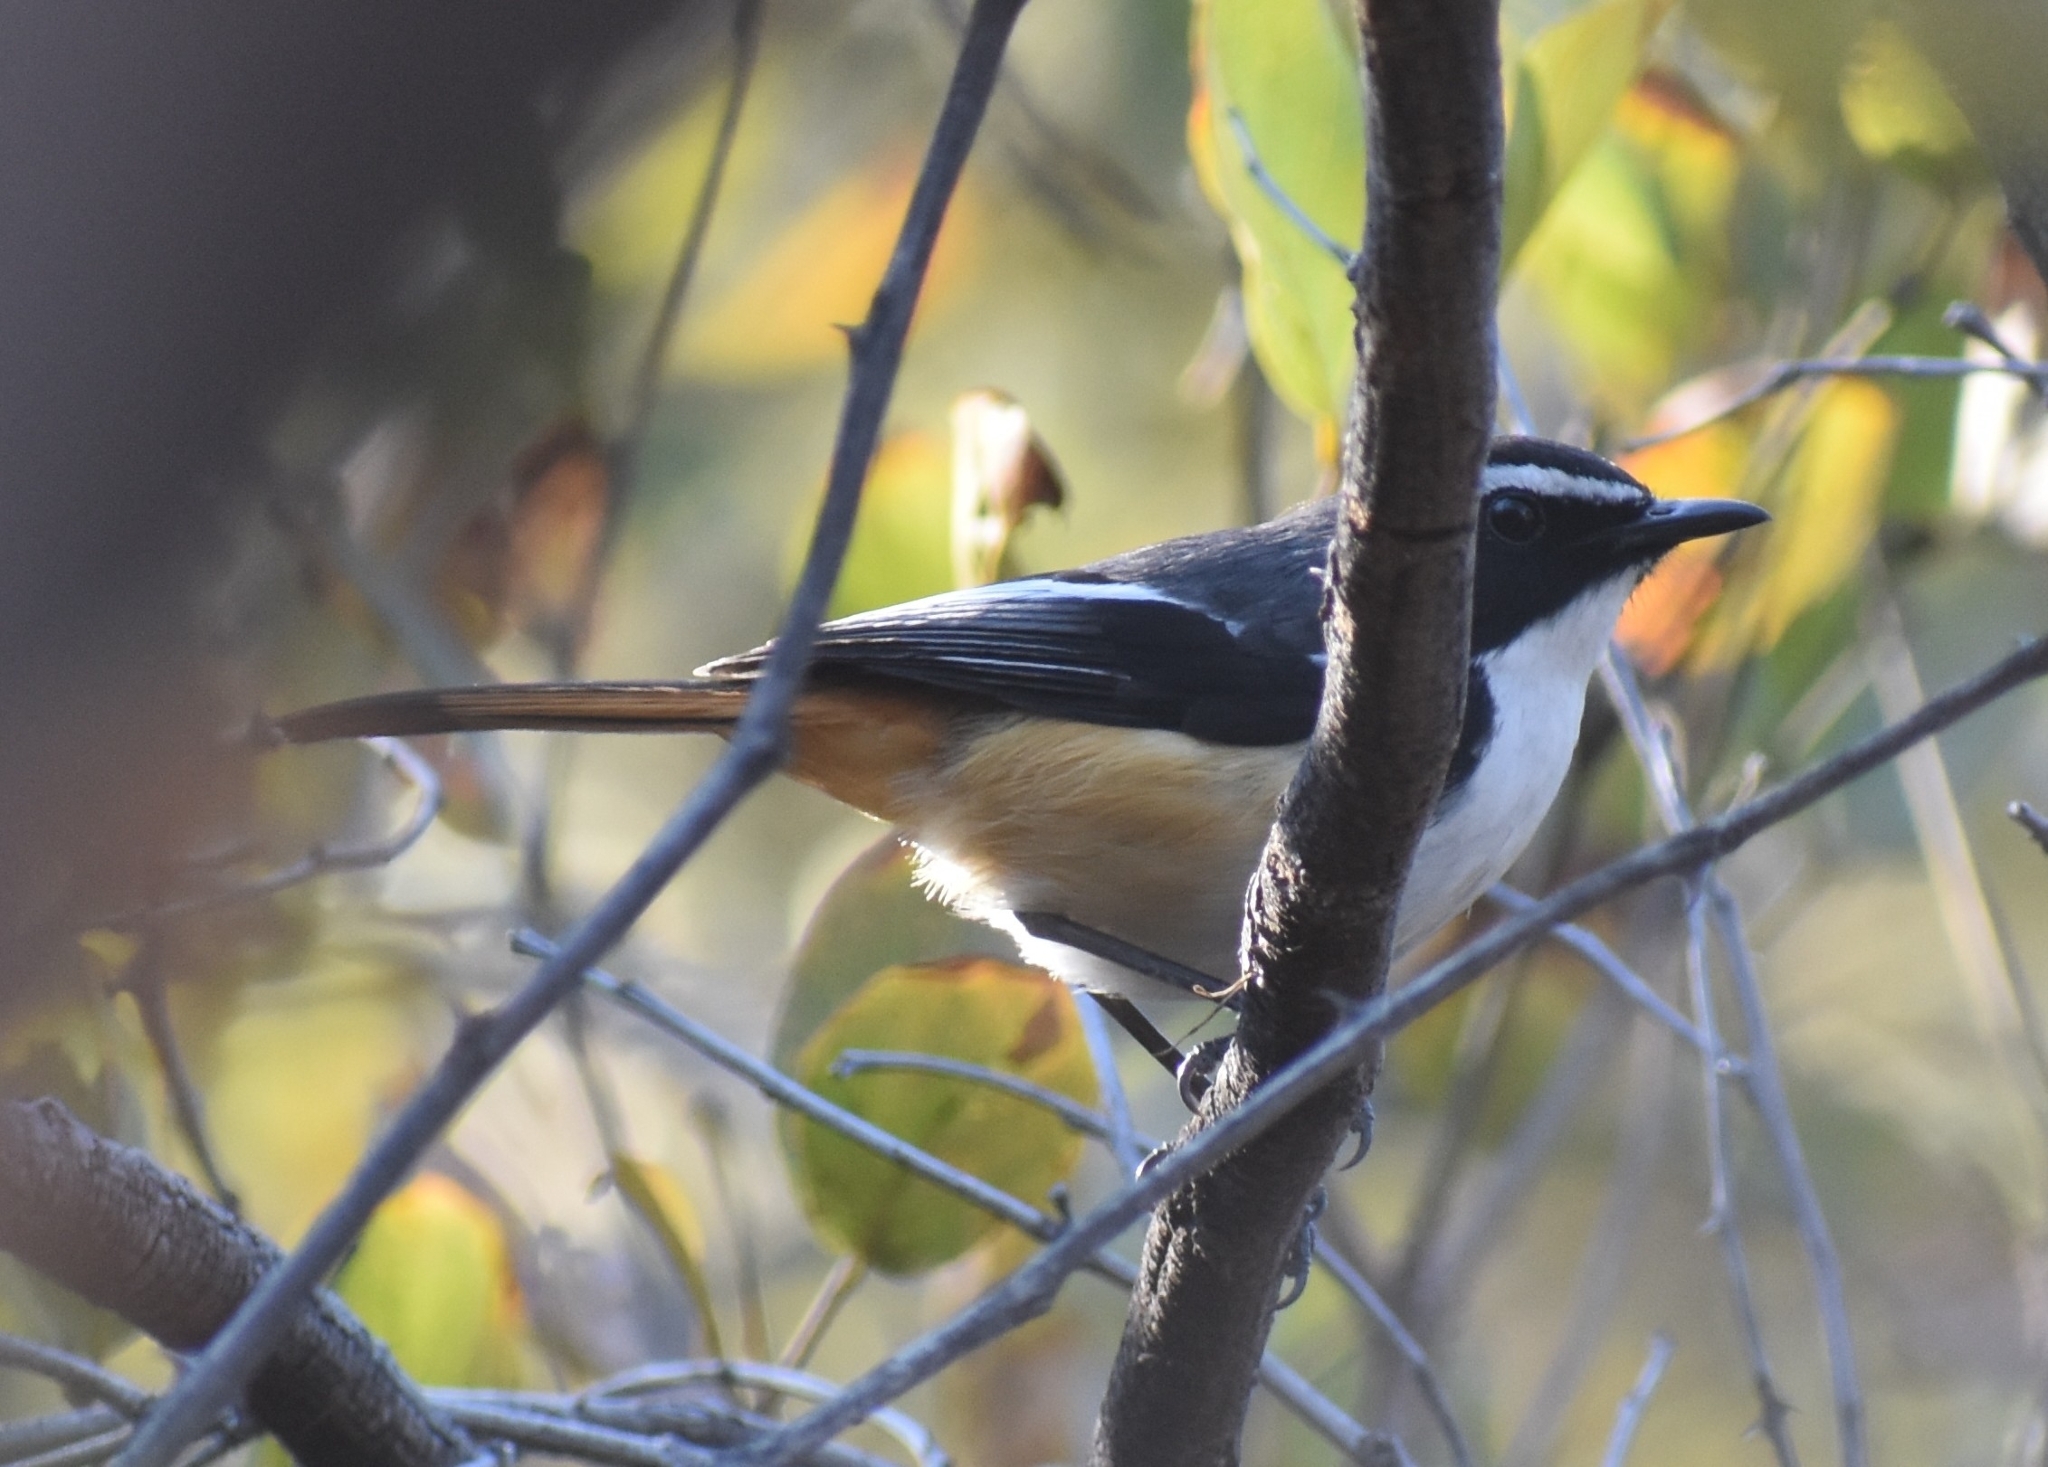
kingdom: Animalia
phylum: Chordata
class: Aves
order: Passeriformes
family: Muscicapidae
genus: Cossypha
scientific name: Cossypha humeralis
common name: White-throated robin-chat
